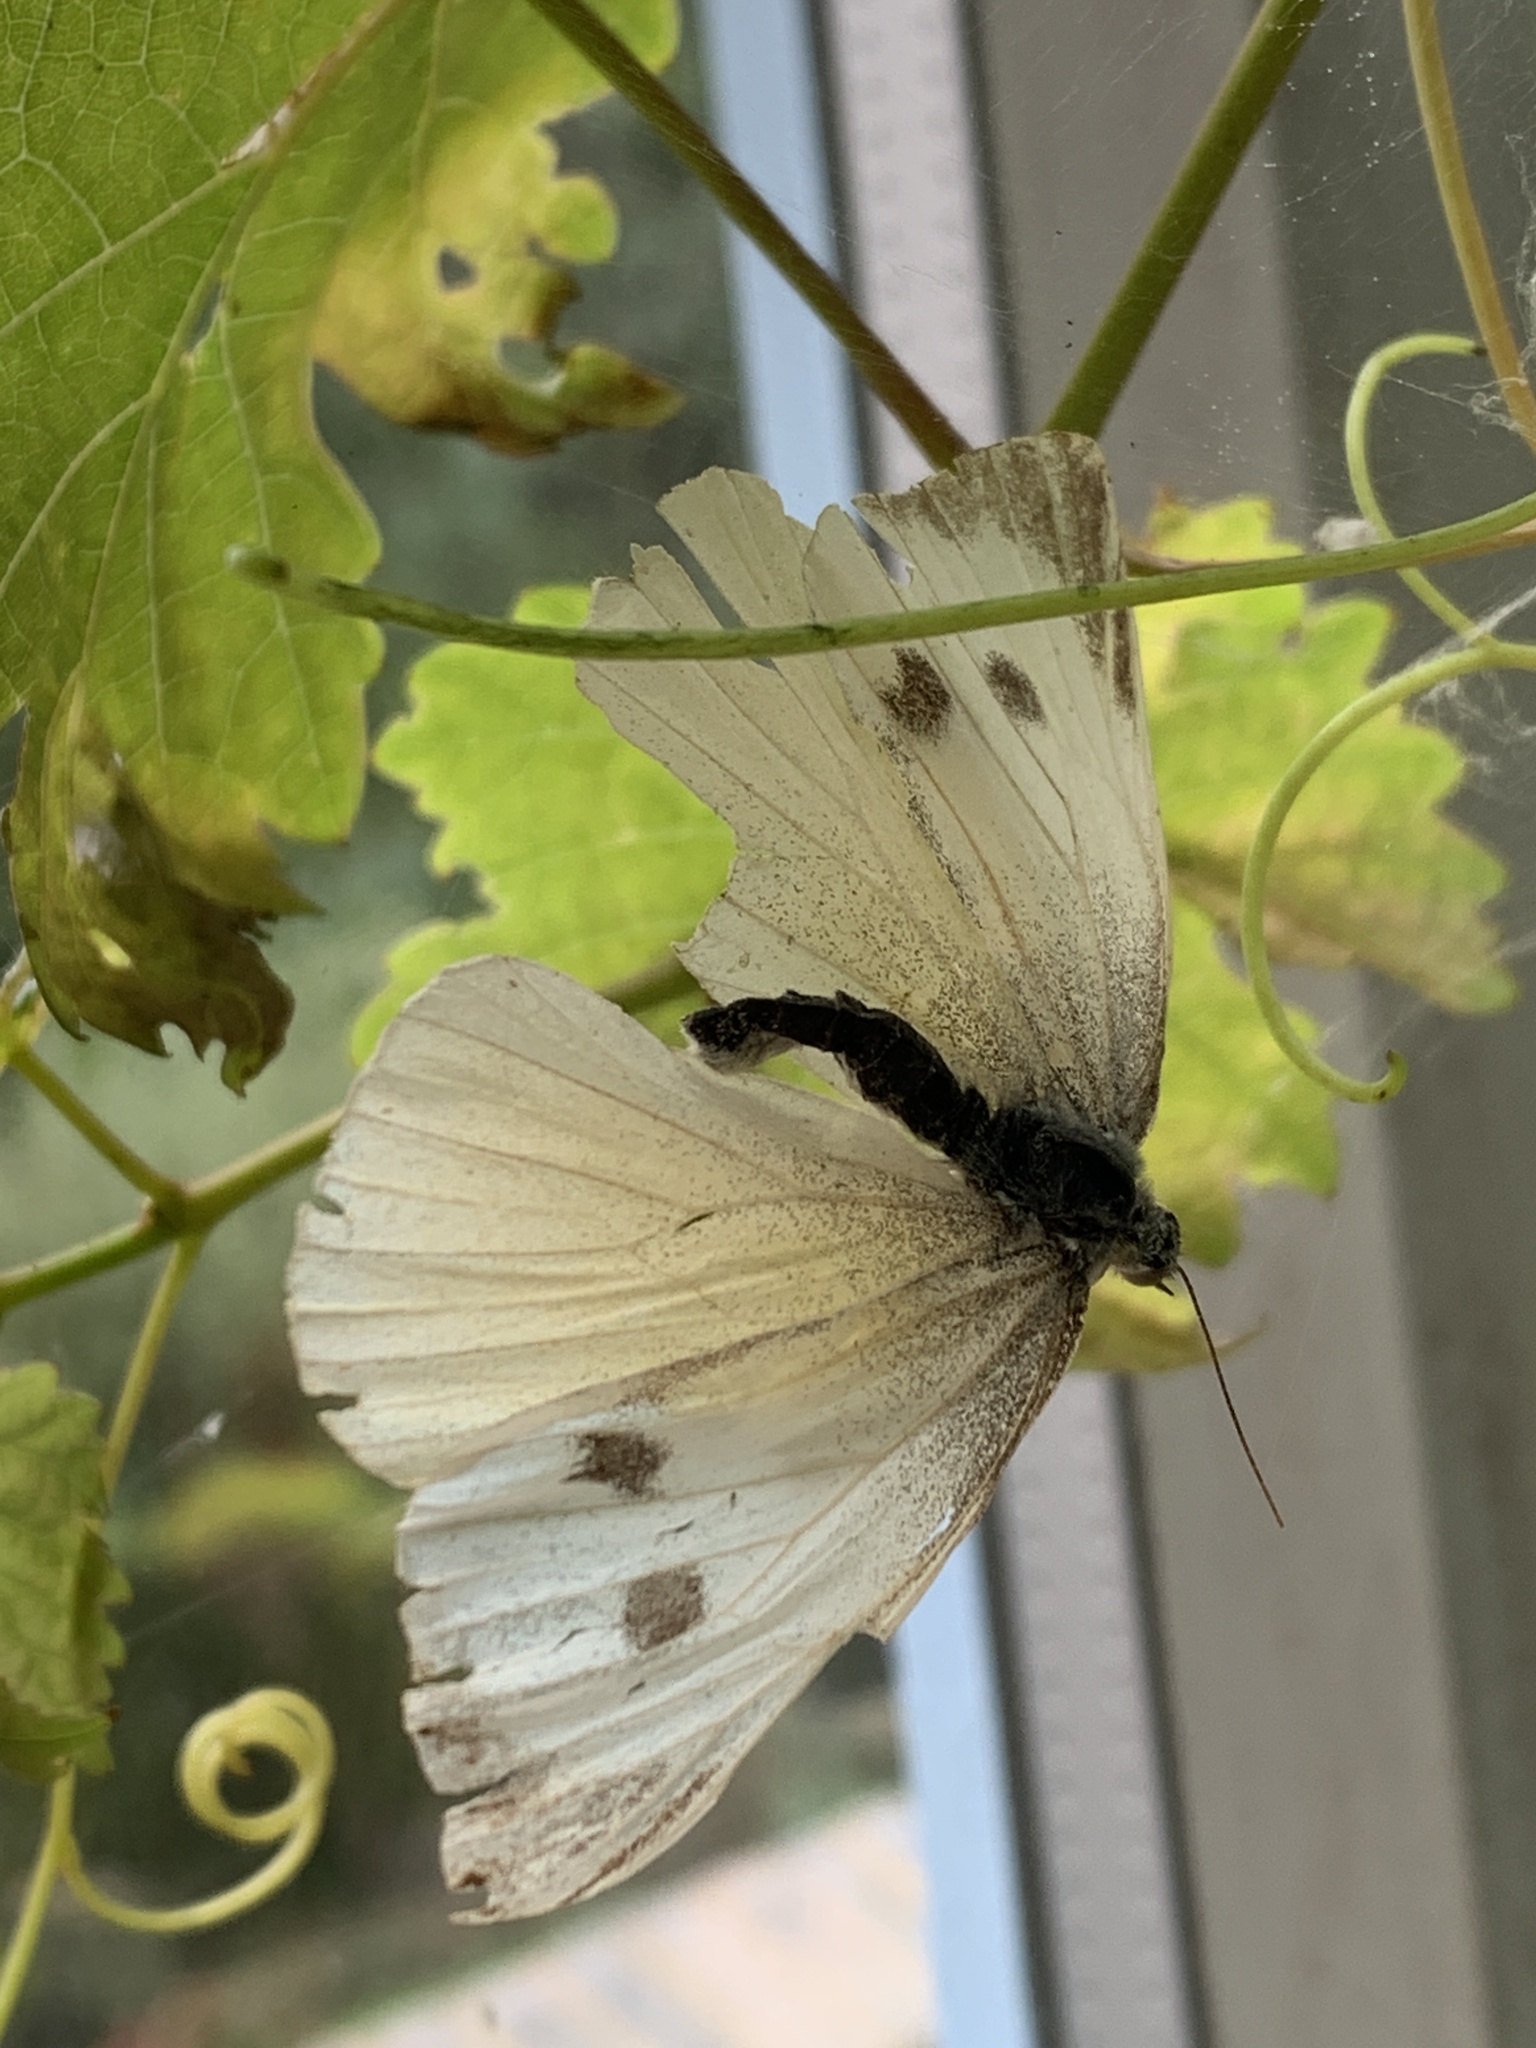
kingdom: Animalia
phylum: Arthropoda
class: Insecta
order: Lepidoptera
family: Pieridae
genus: Pieris
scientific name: Pieris brassicae
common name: Large white
